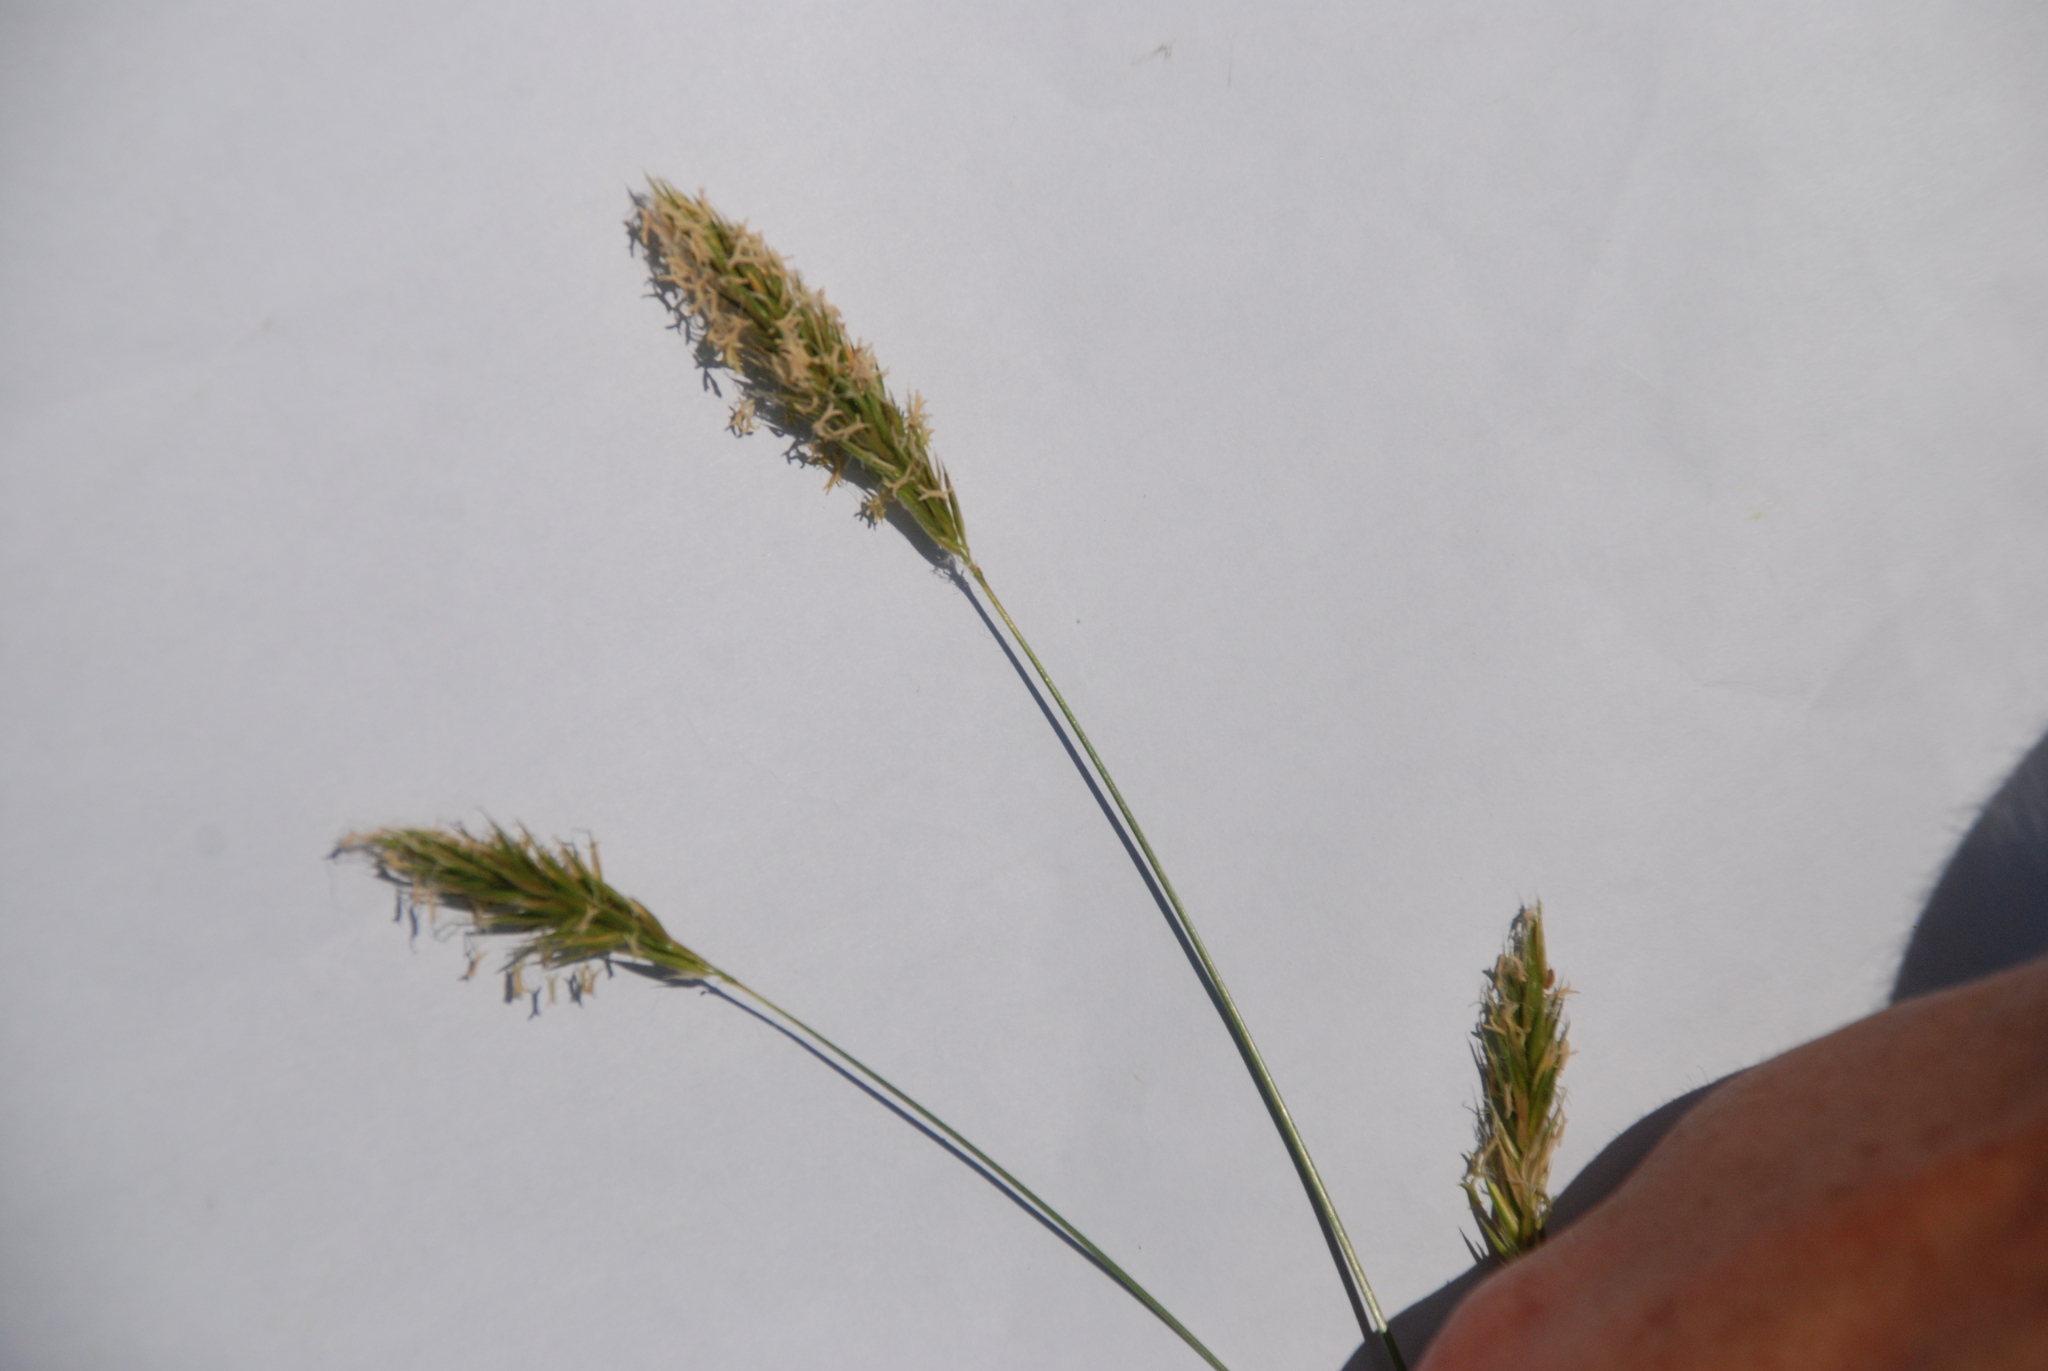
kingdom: Plantae
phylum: Tracheophyta
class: Liliopsida
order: Poales
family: Poaceae
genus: Anthoxanthum
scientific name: Anthoxanthum odoratum
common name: Sweet vernalgrass
